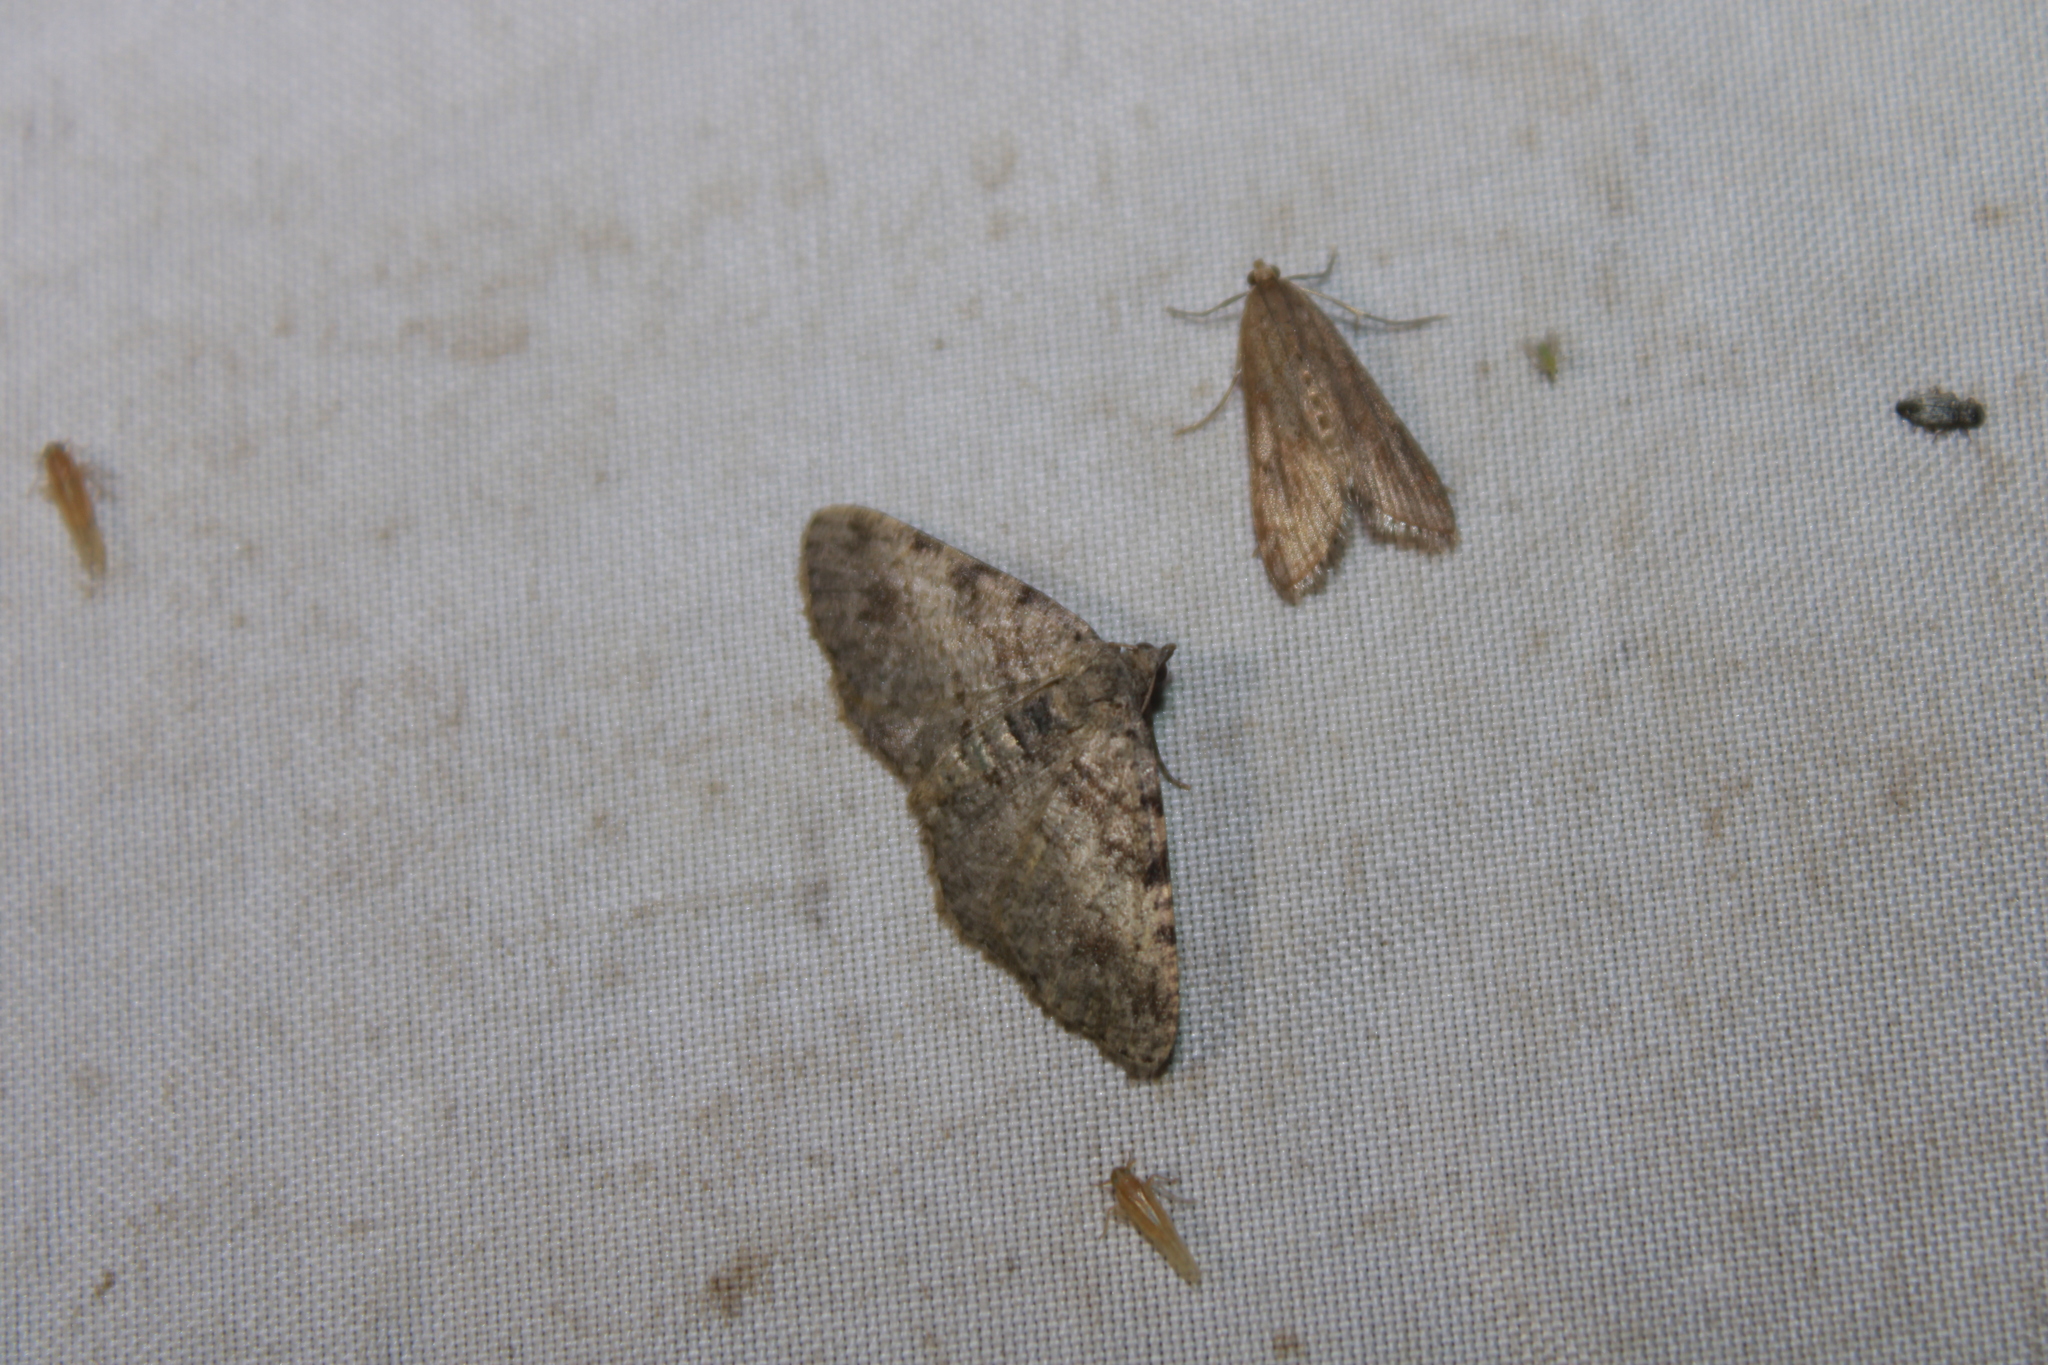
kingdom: Animalia
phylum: Arthropoda
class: Insecta
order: Lepidoptera
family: Geometridae
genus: Digrammia
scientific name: Digrammia gnophosaria
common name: Hollow-spotted angle
